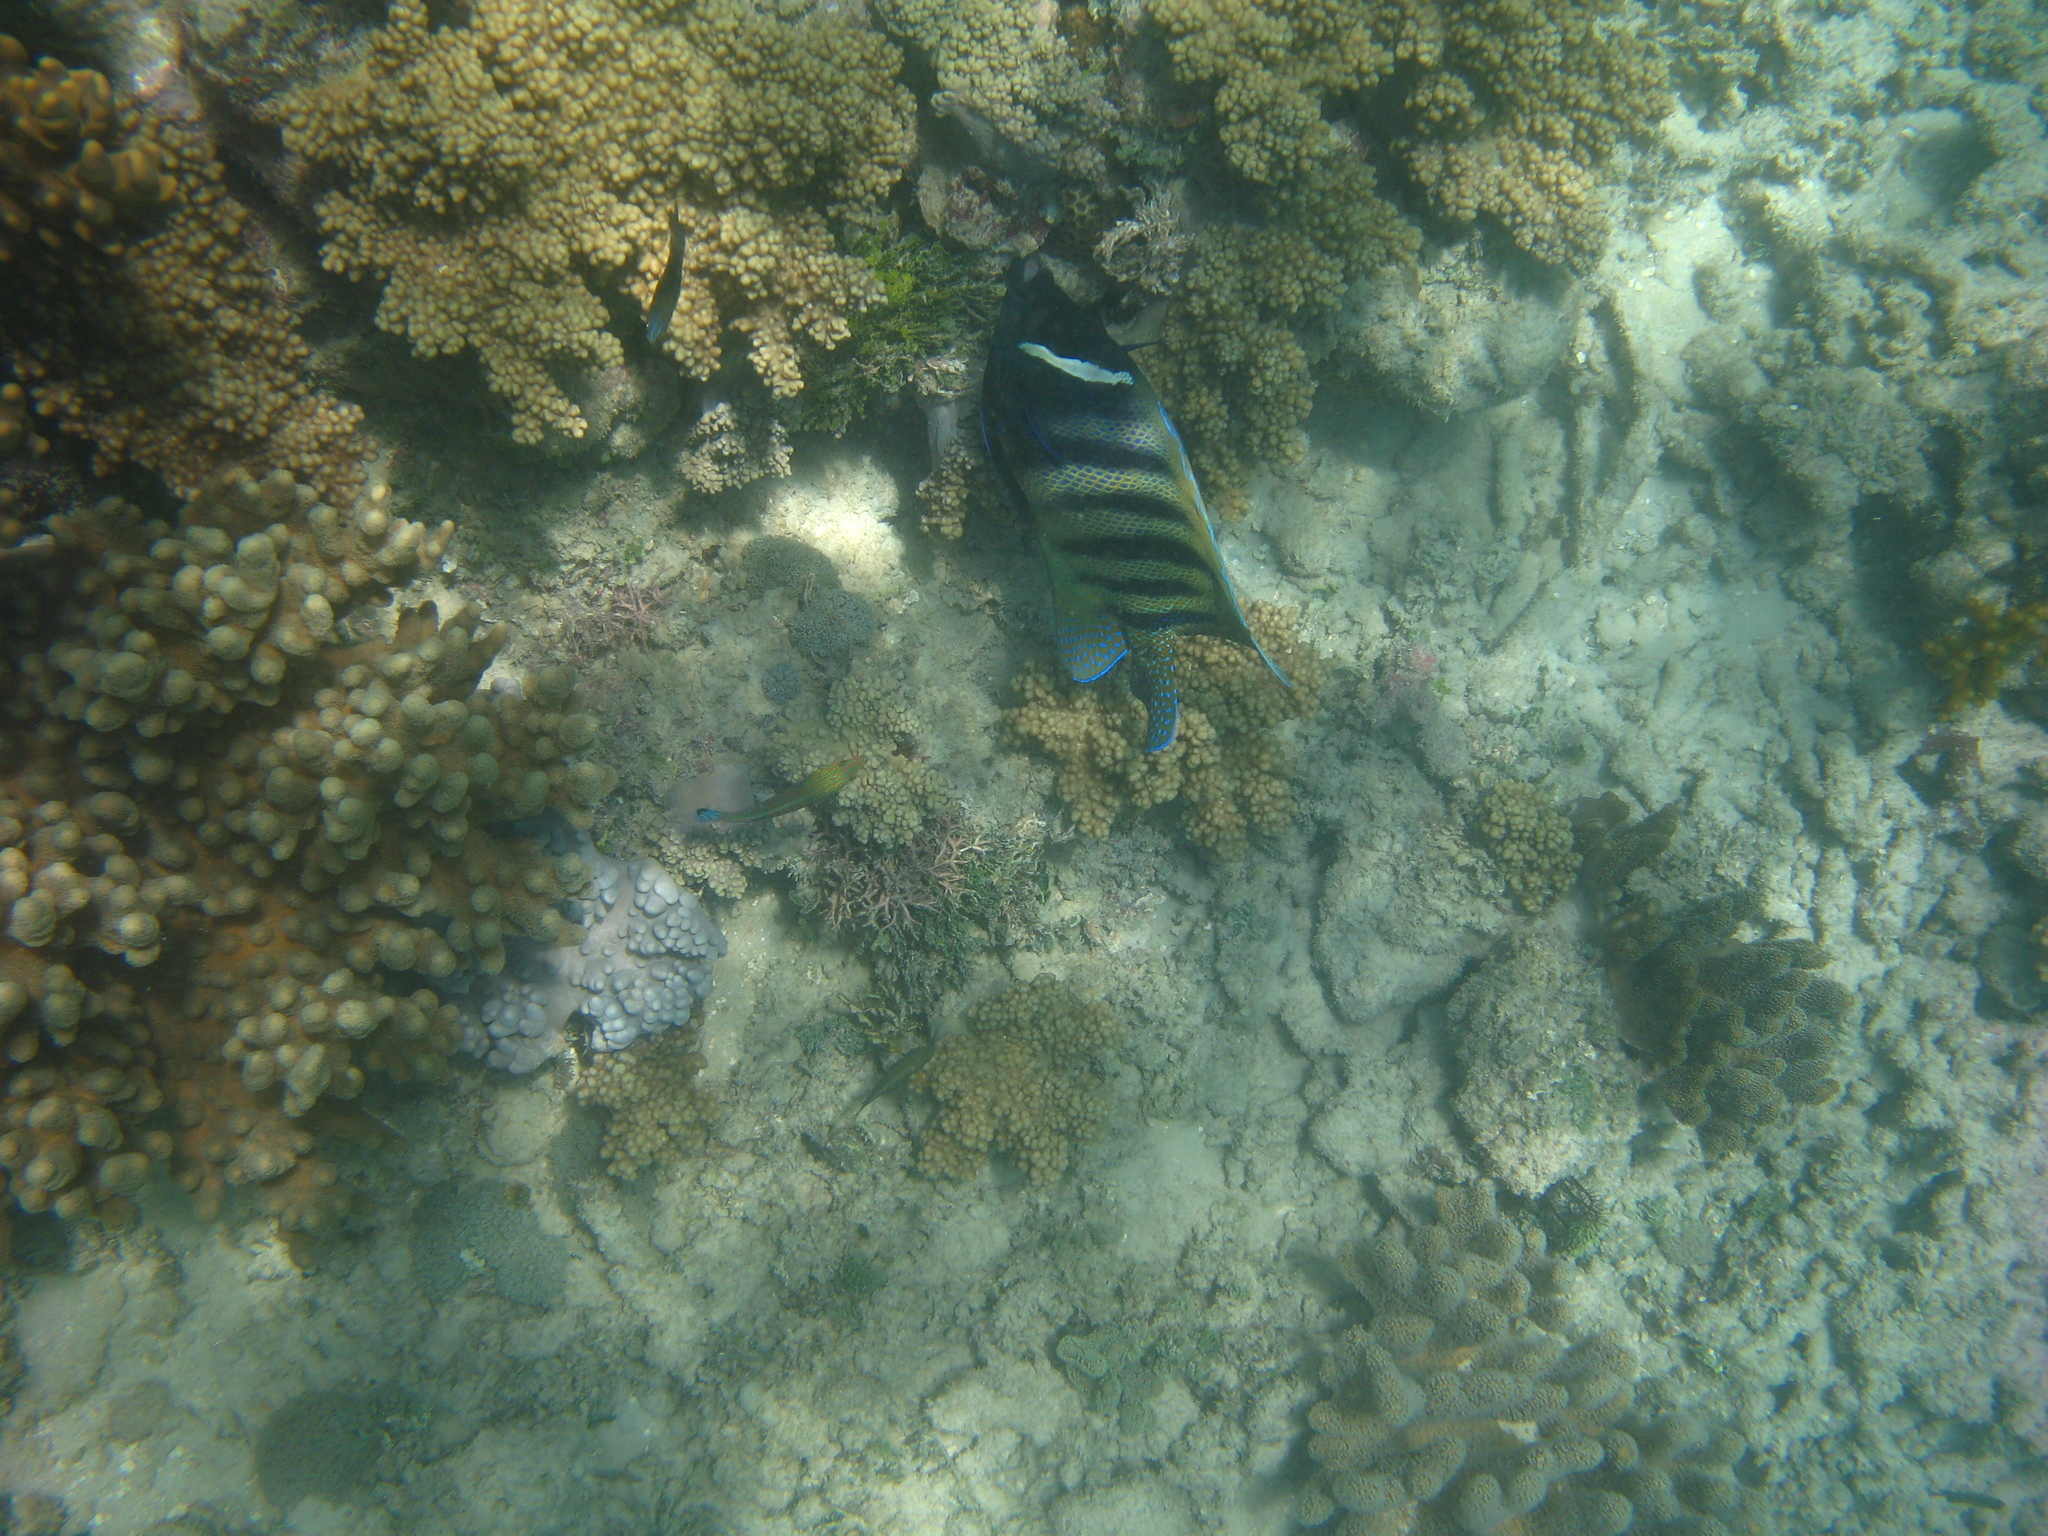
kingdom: Animalia
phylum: Chordata
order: Perciformes
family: Pomacanthidae
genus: Pomacanthus
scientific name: Pomacanthus sexstriatus
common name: Six-banded angelfish
